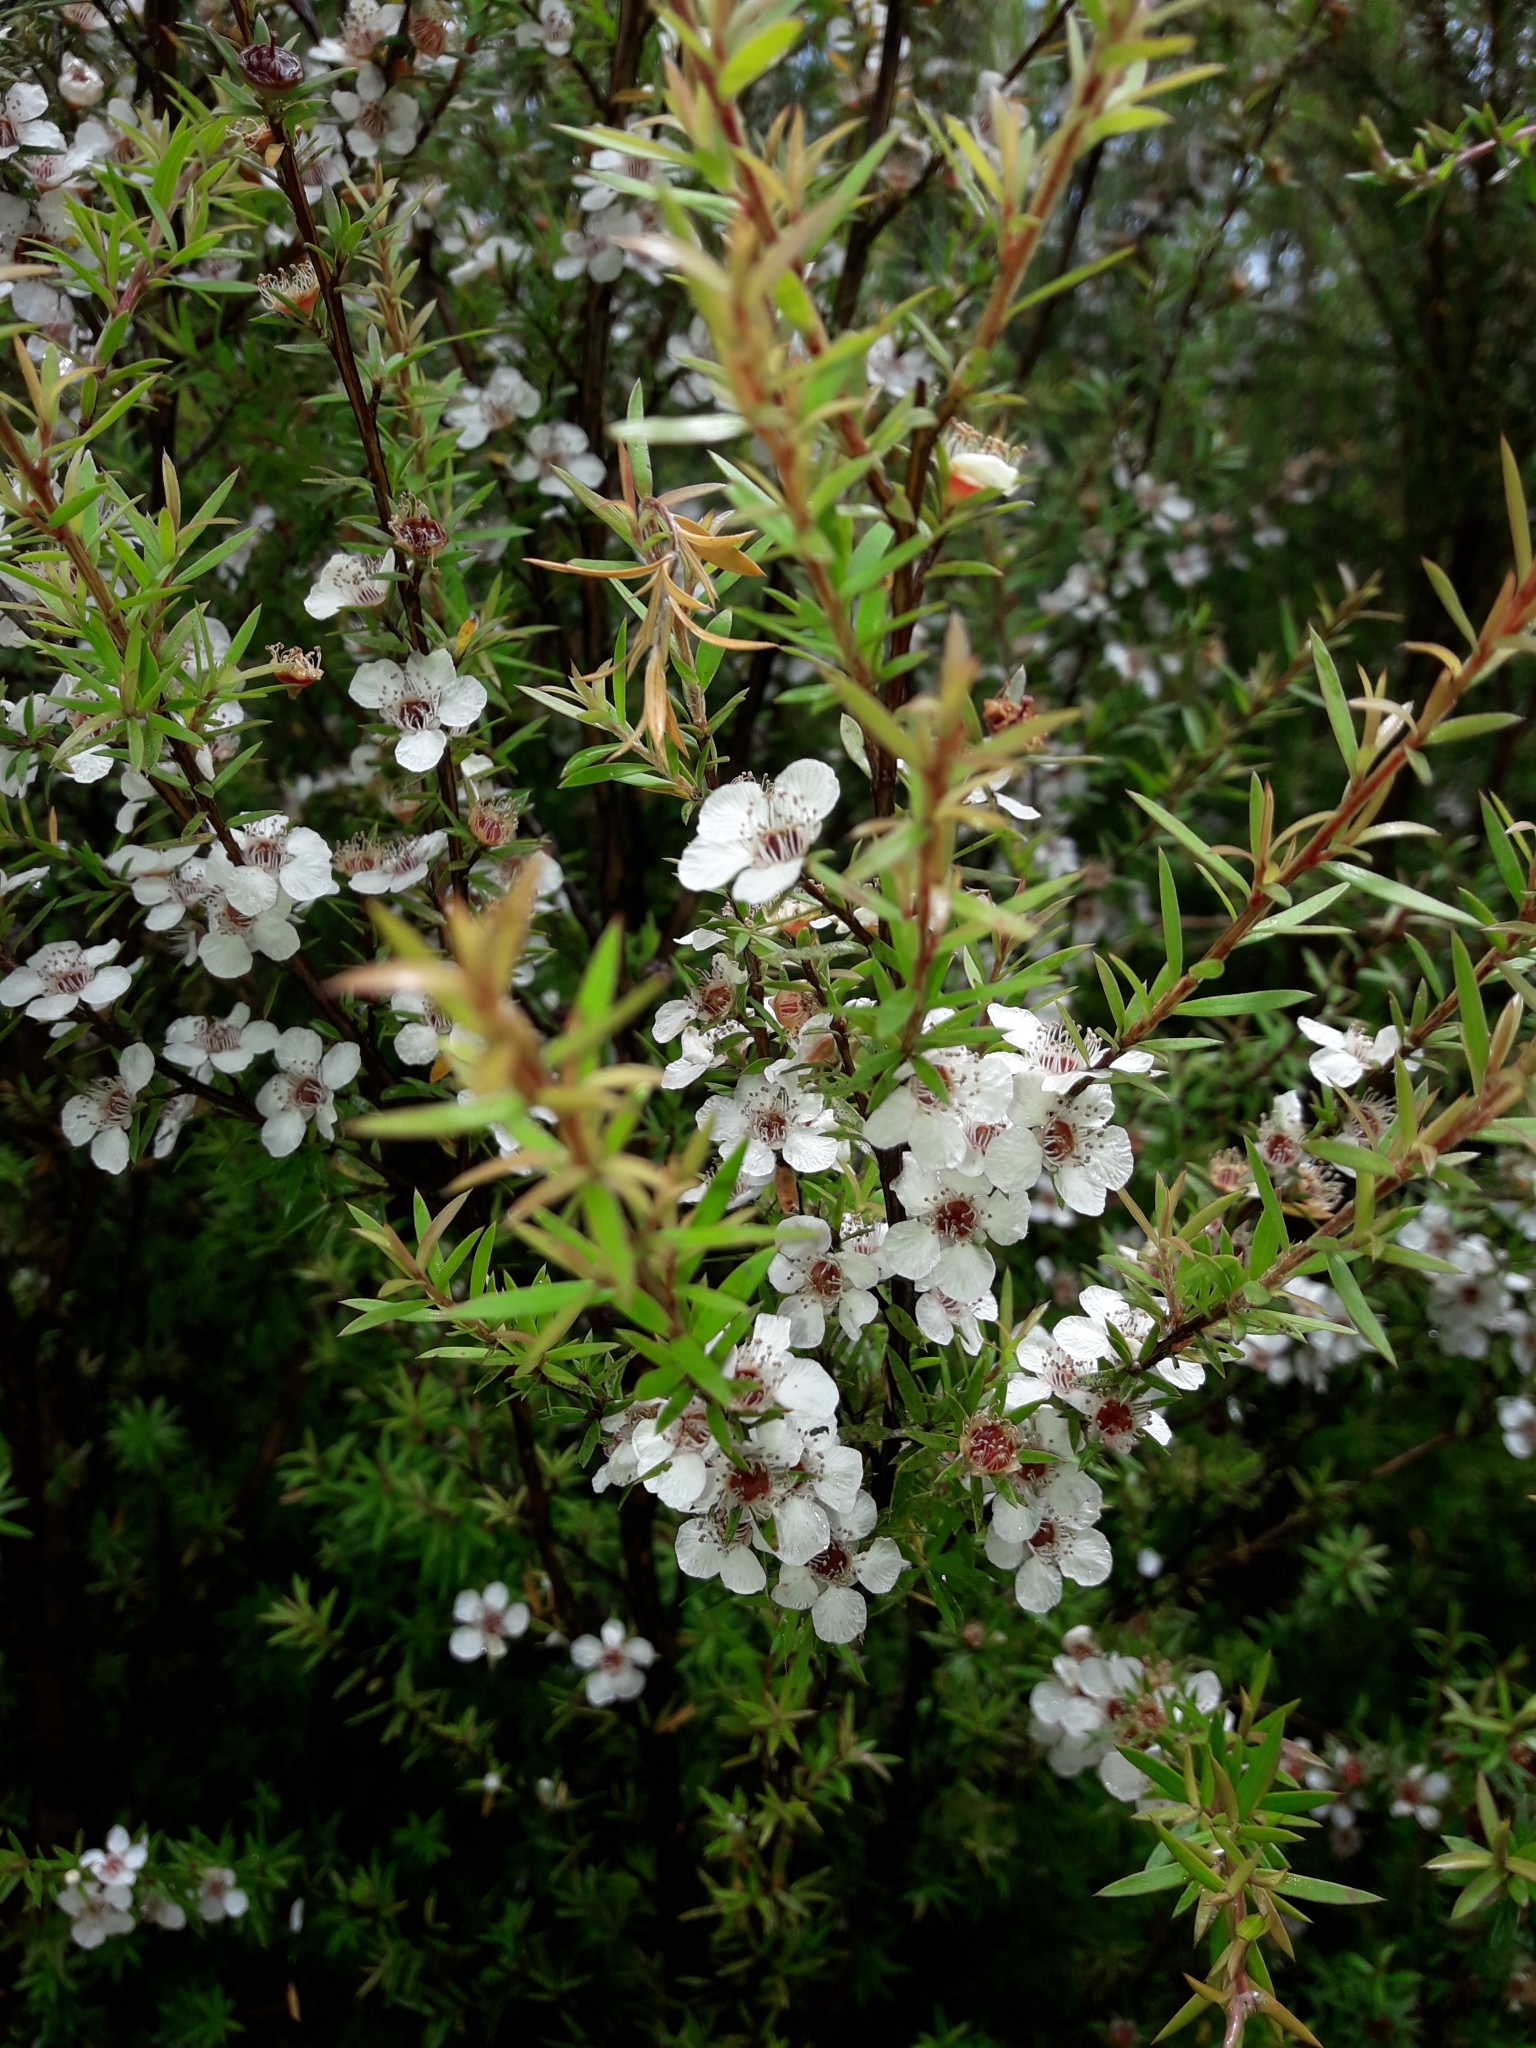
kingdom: Plantae
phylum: Tracheophyta
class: Magnoliopsida
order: Myrtales
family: Myrtaceae
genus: Leptospermum
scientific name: Leptospermum scoparium
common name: Broom tea-tree
